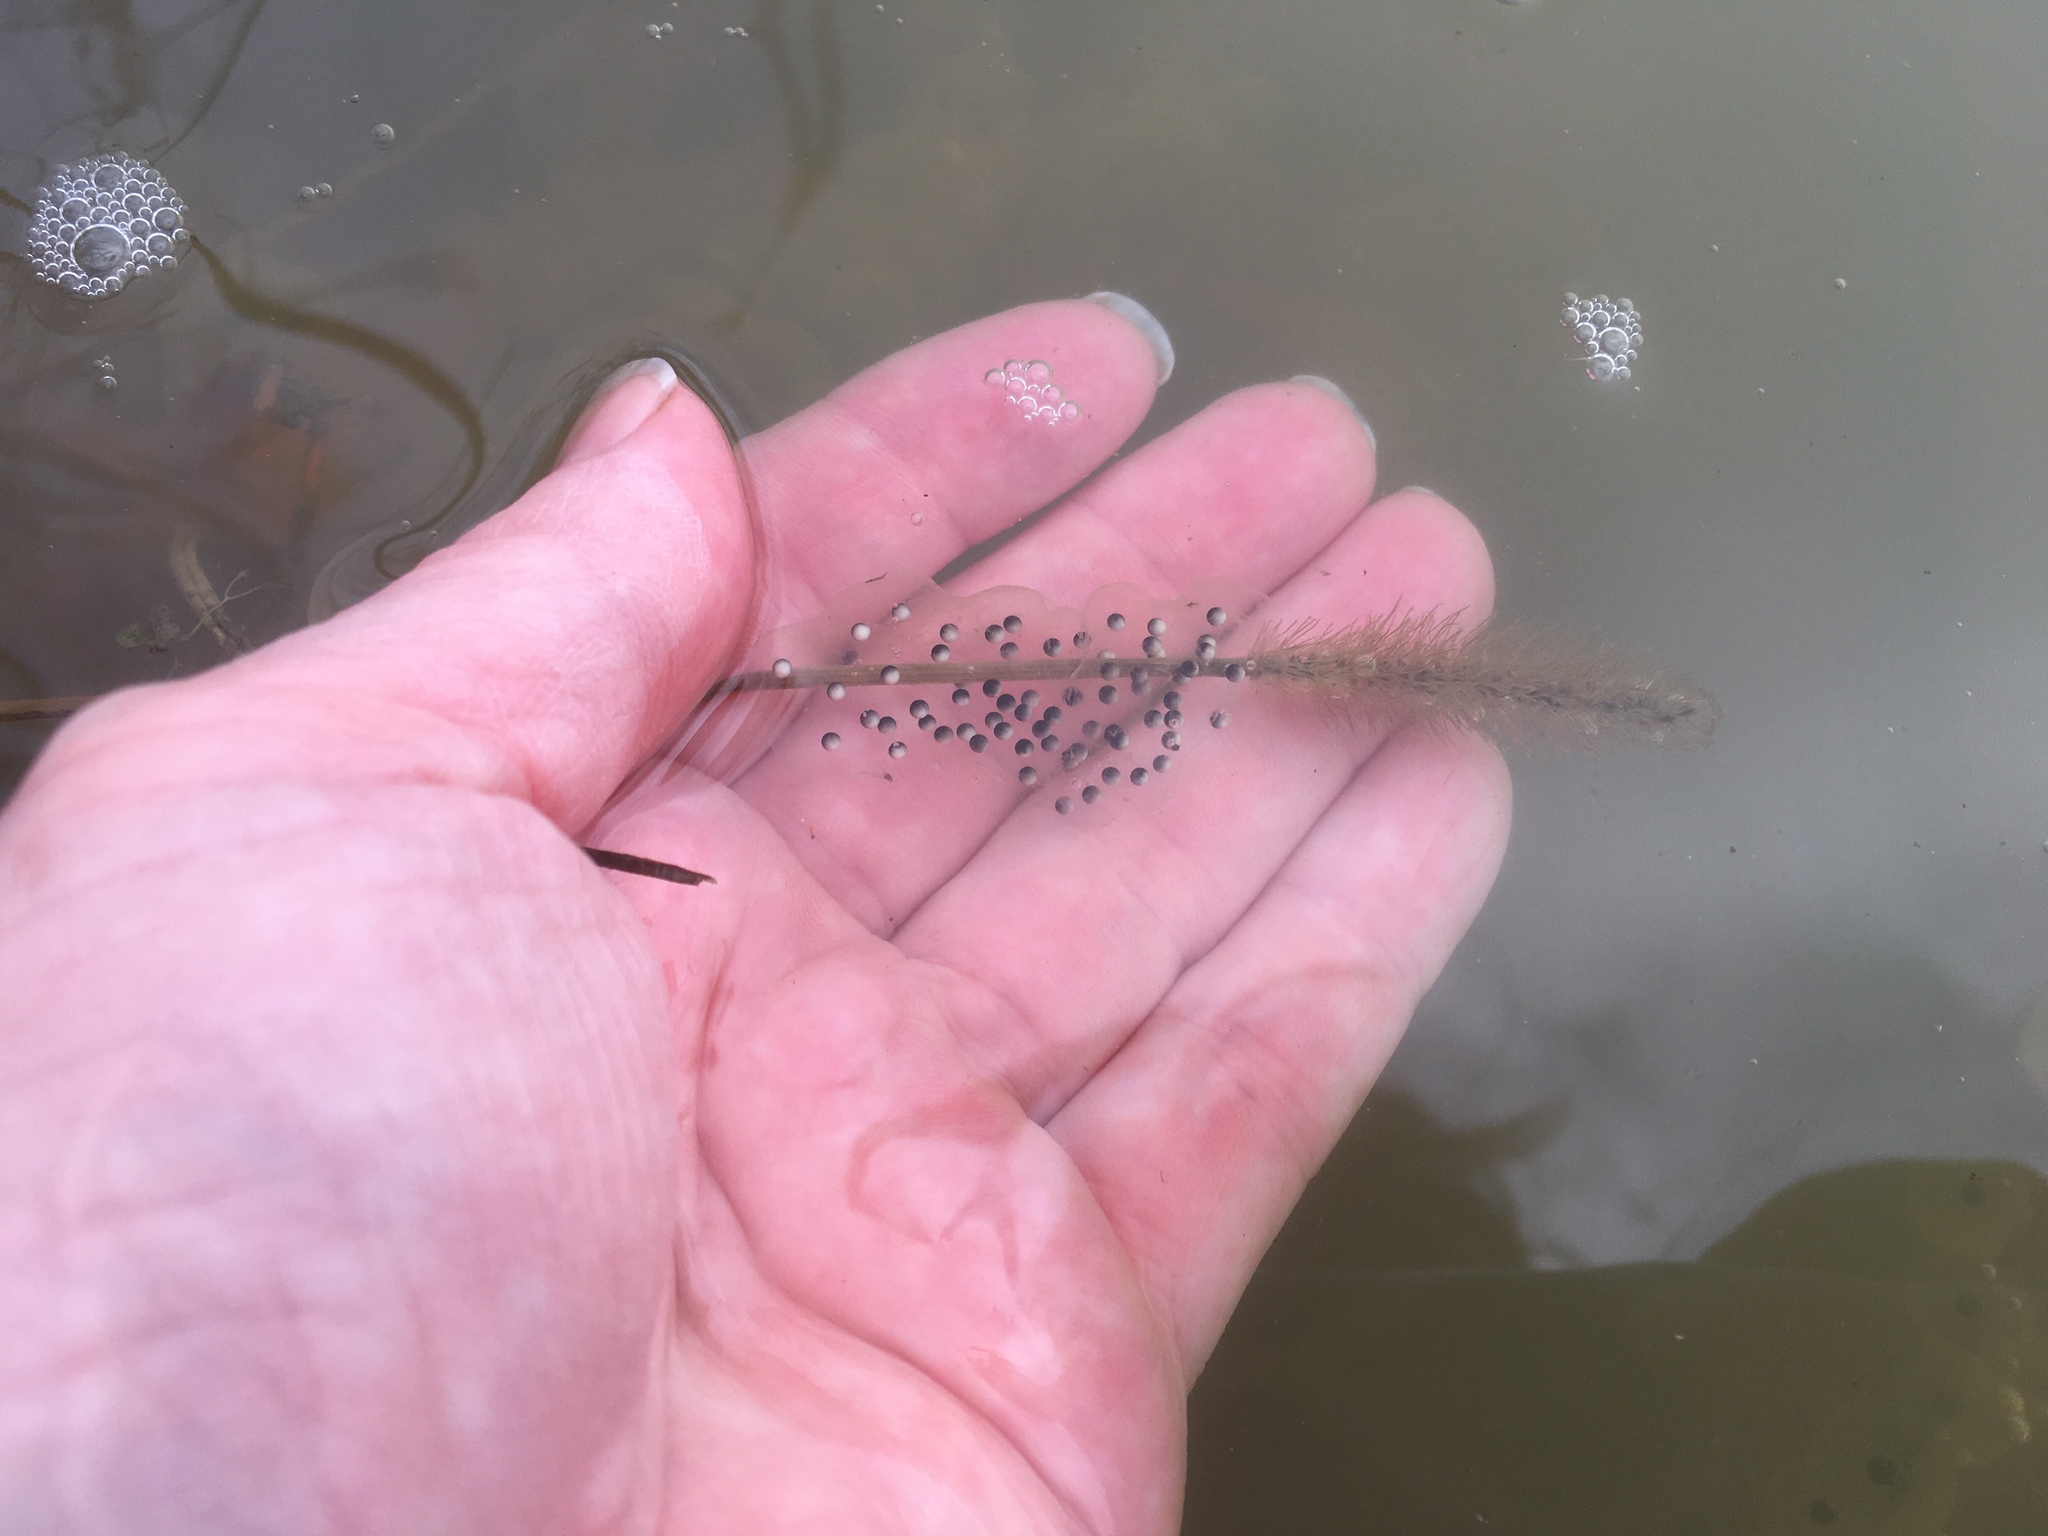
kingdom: Animalia
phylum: Chordata
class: Amphibia
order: Anura
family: Hylidae
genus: Pseudacris
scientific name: Pseudacris triseriata
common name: Western chorus frog
